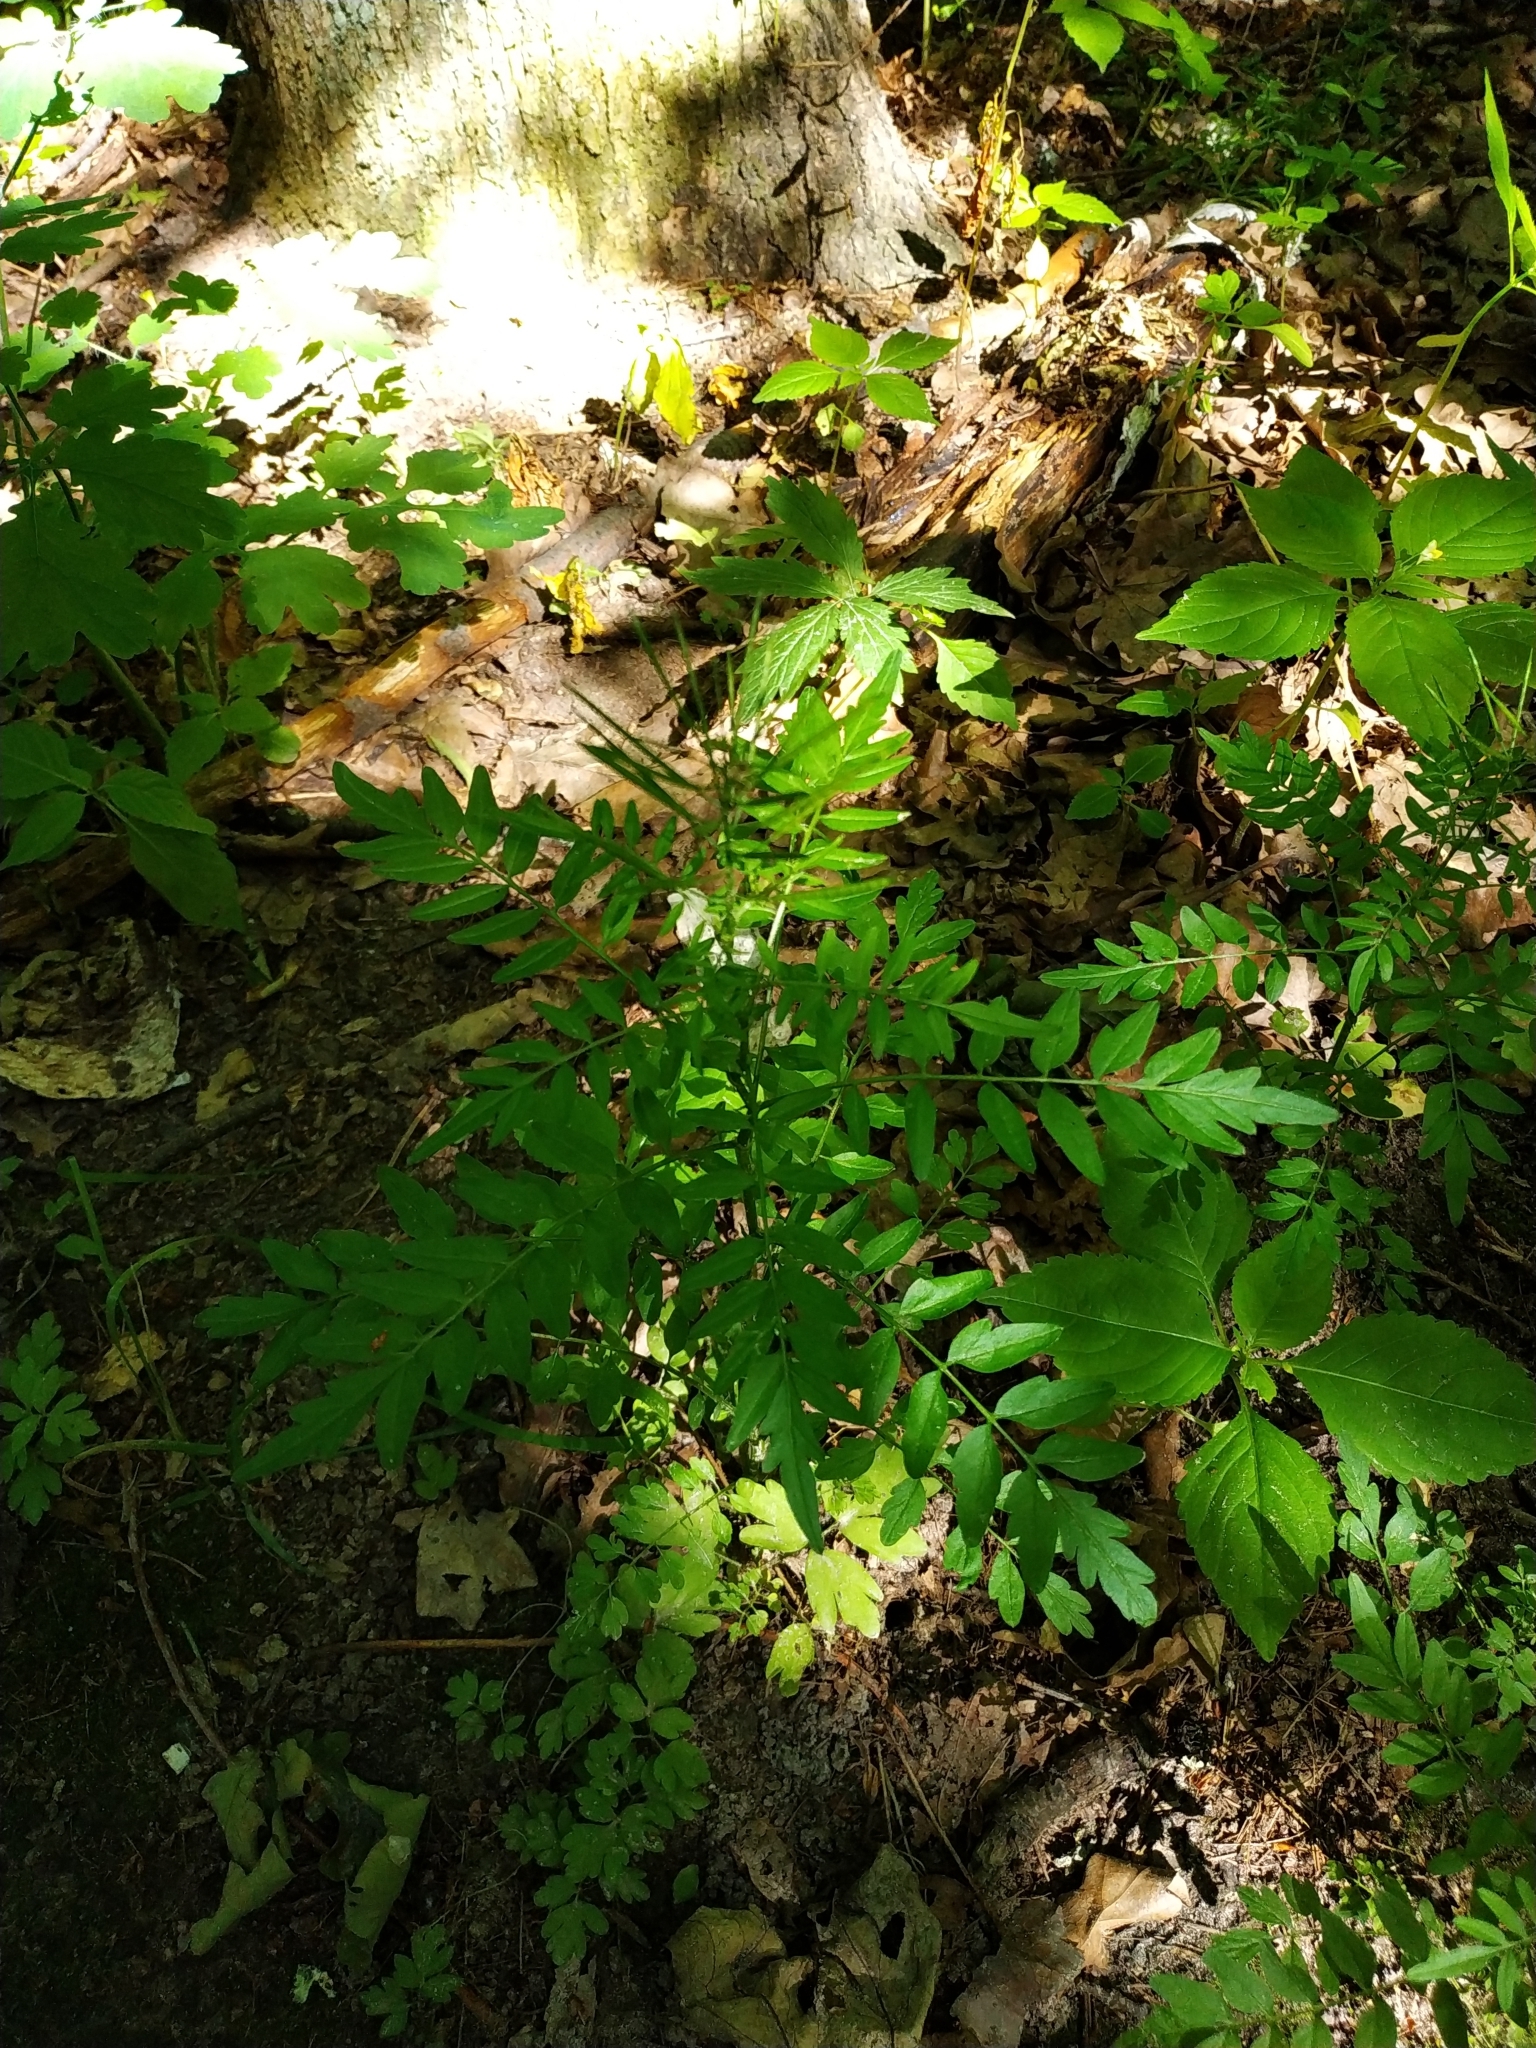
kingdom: Plantae
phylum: Tracheophyta
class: Magnoliopsida
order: Brassicales
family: Brassicaceae
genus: Cardamine
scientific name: Cardamine impatiens
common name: Narrow-leaved bitter-cress
